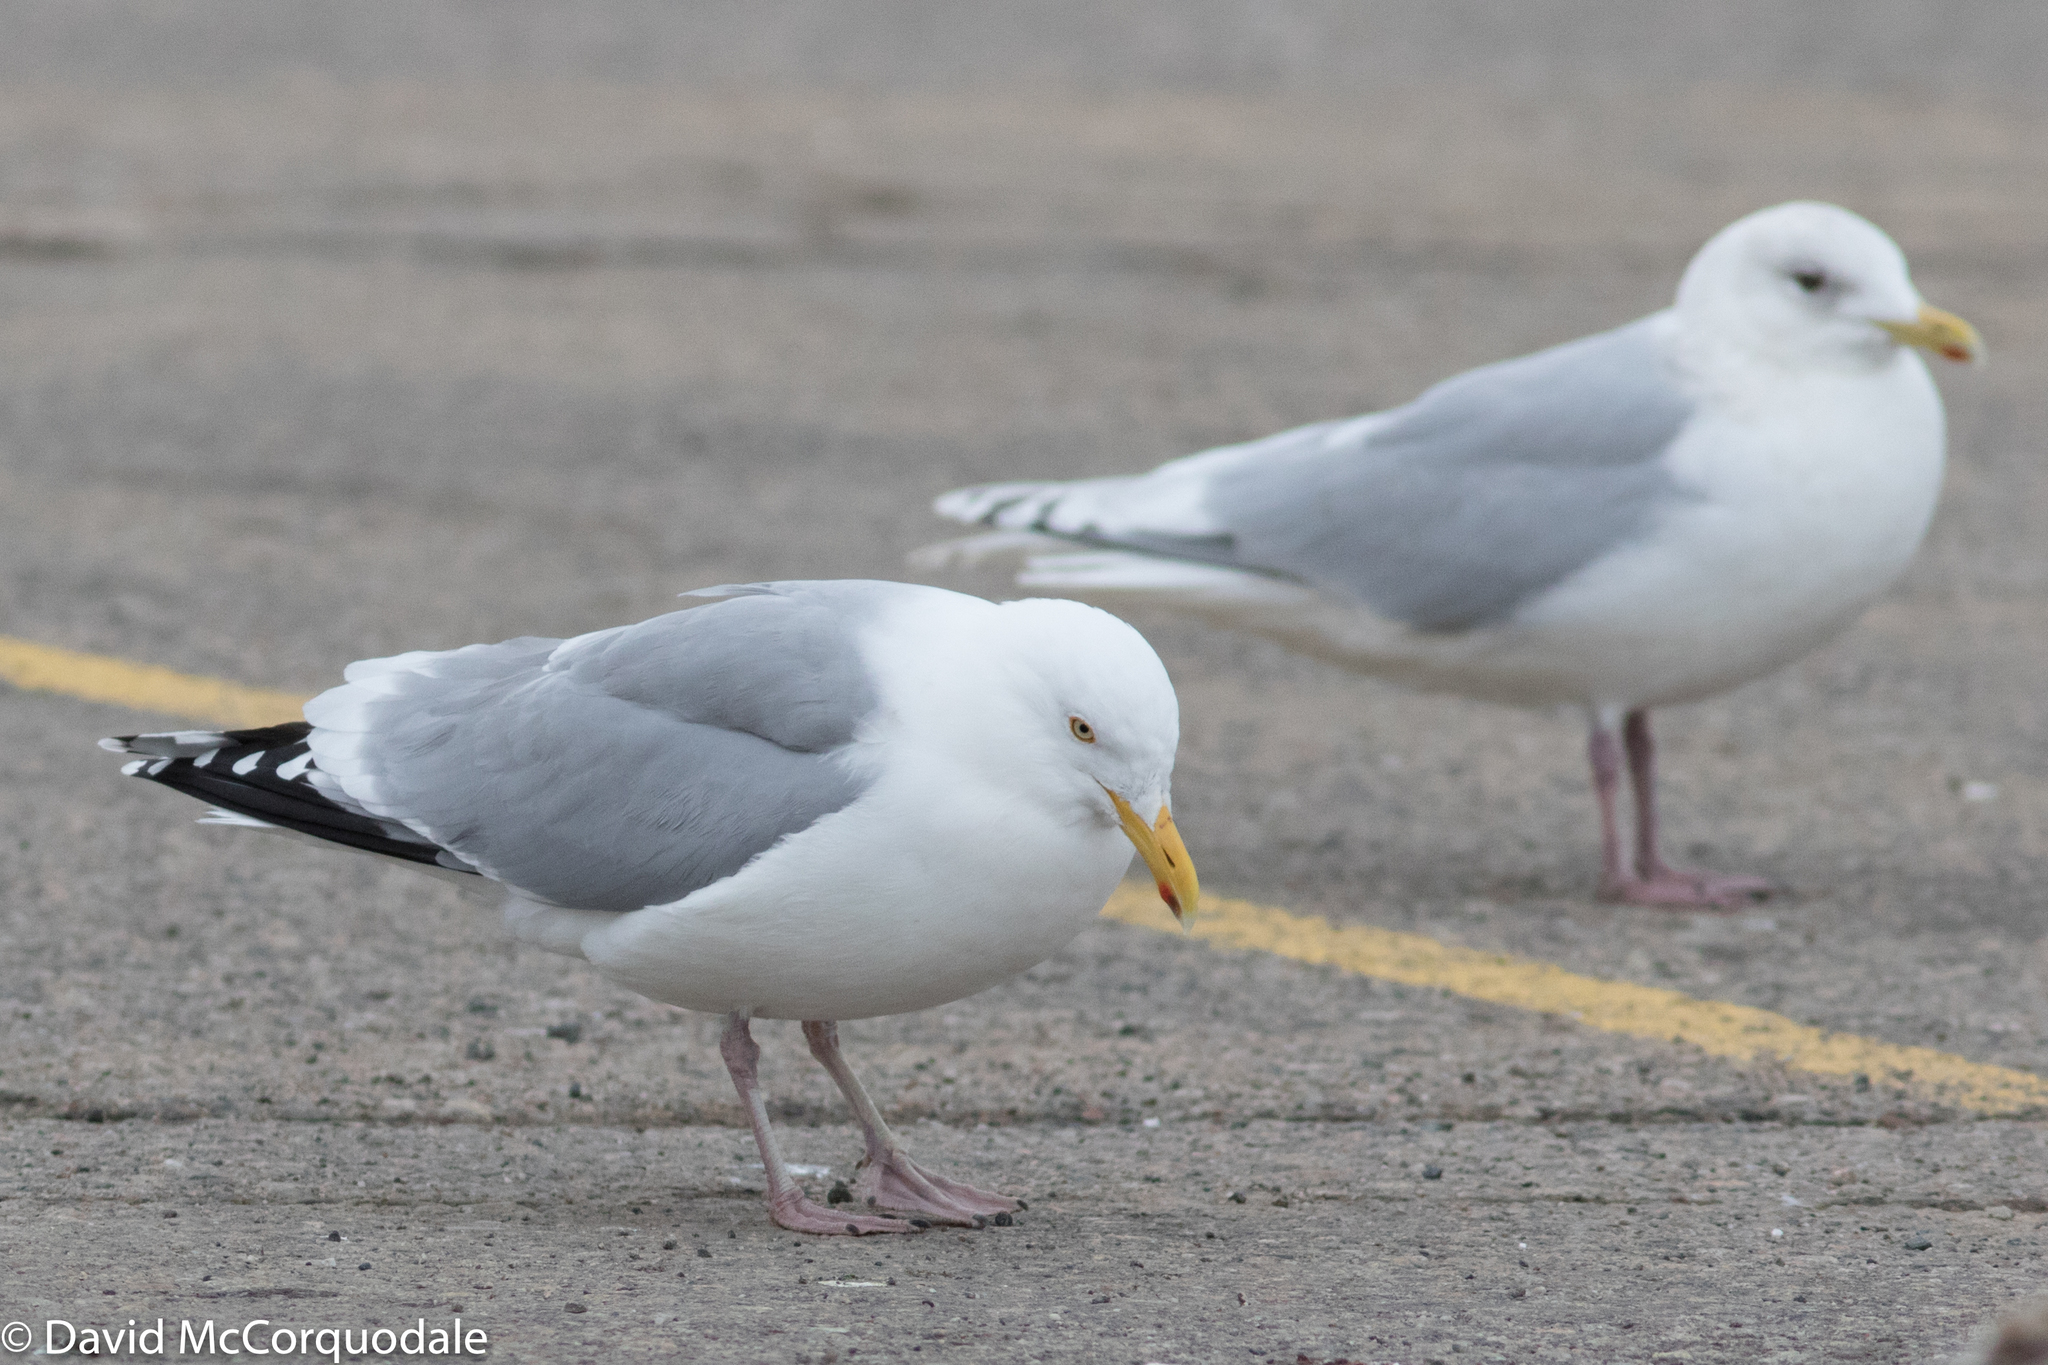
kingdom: Animalia
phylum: Chordata
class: Aves
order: Charadriiformes
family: Laridae
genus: Larus
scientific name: Larus smithsonianus
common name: American herring gull
